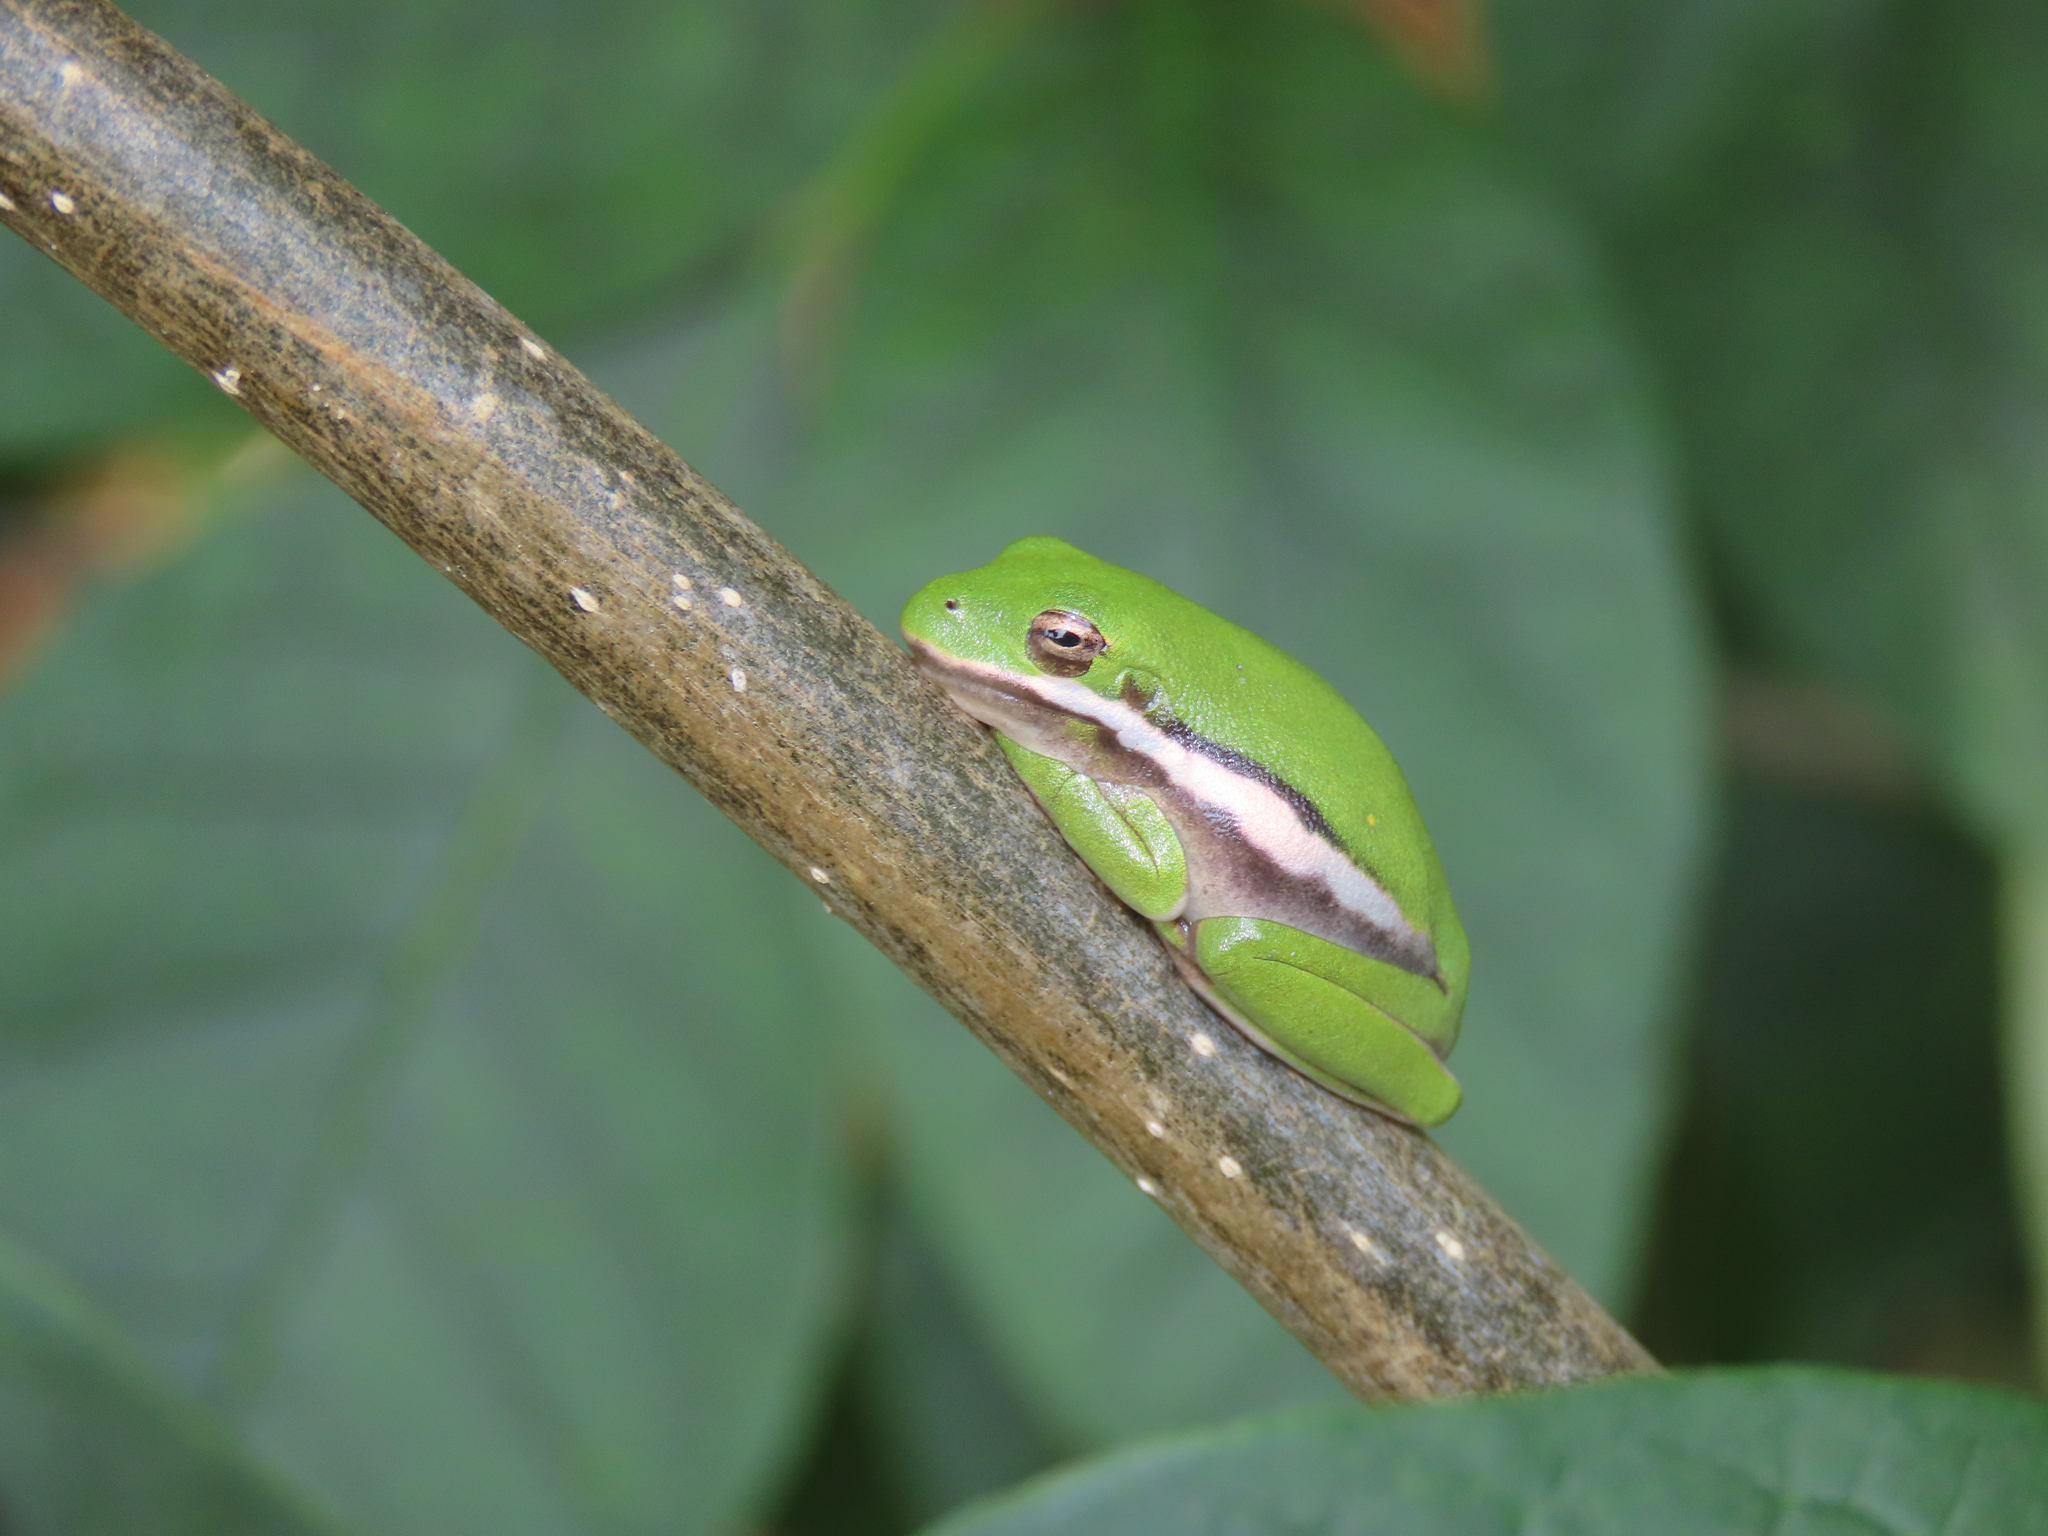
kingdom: Animalia
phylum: Chordata
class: Amphibia
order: Anura
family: Hylidae
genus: Dryophytes
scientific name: Dryophytes cinereus
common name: Green treefrog
